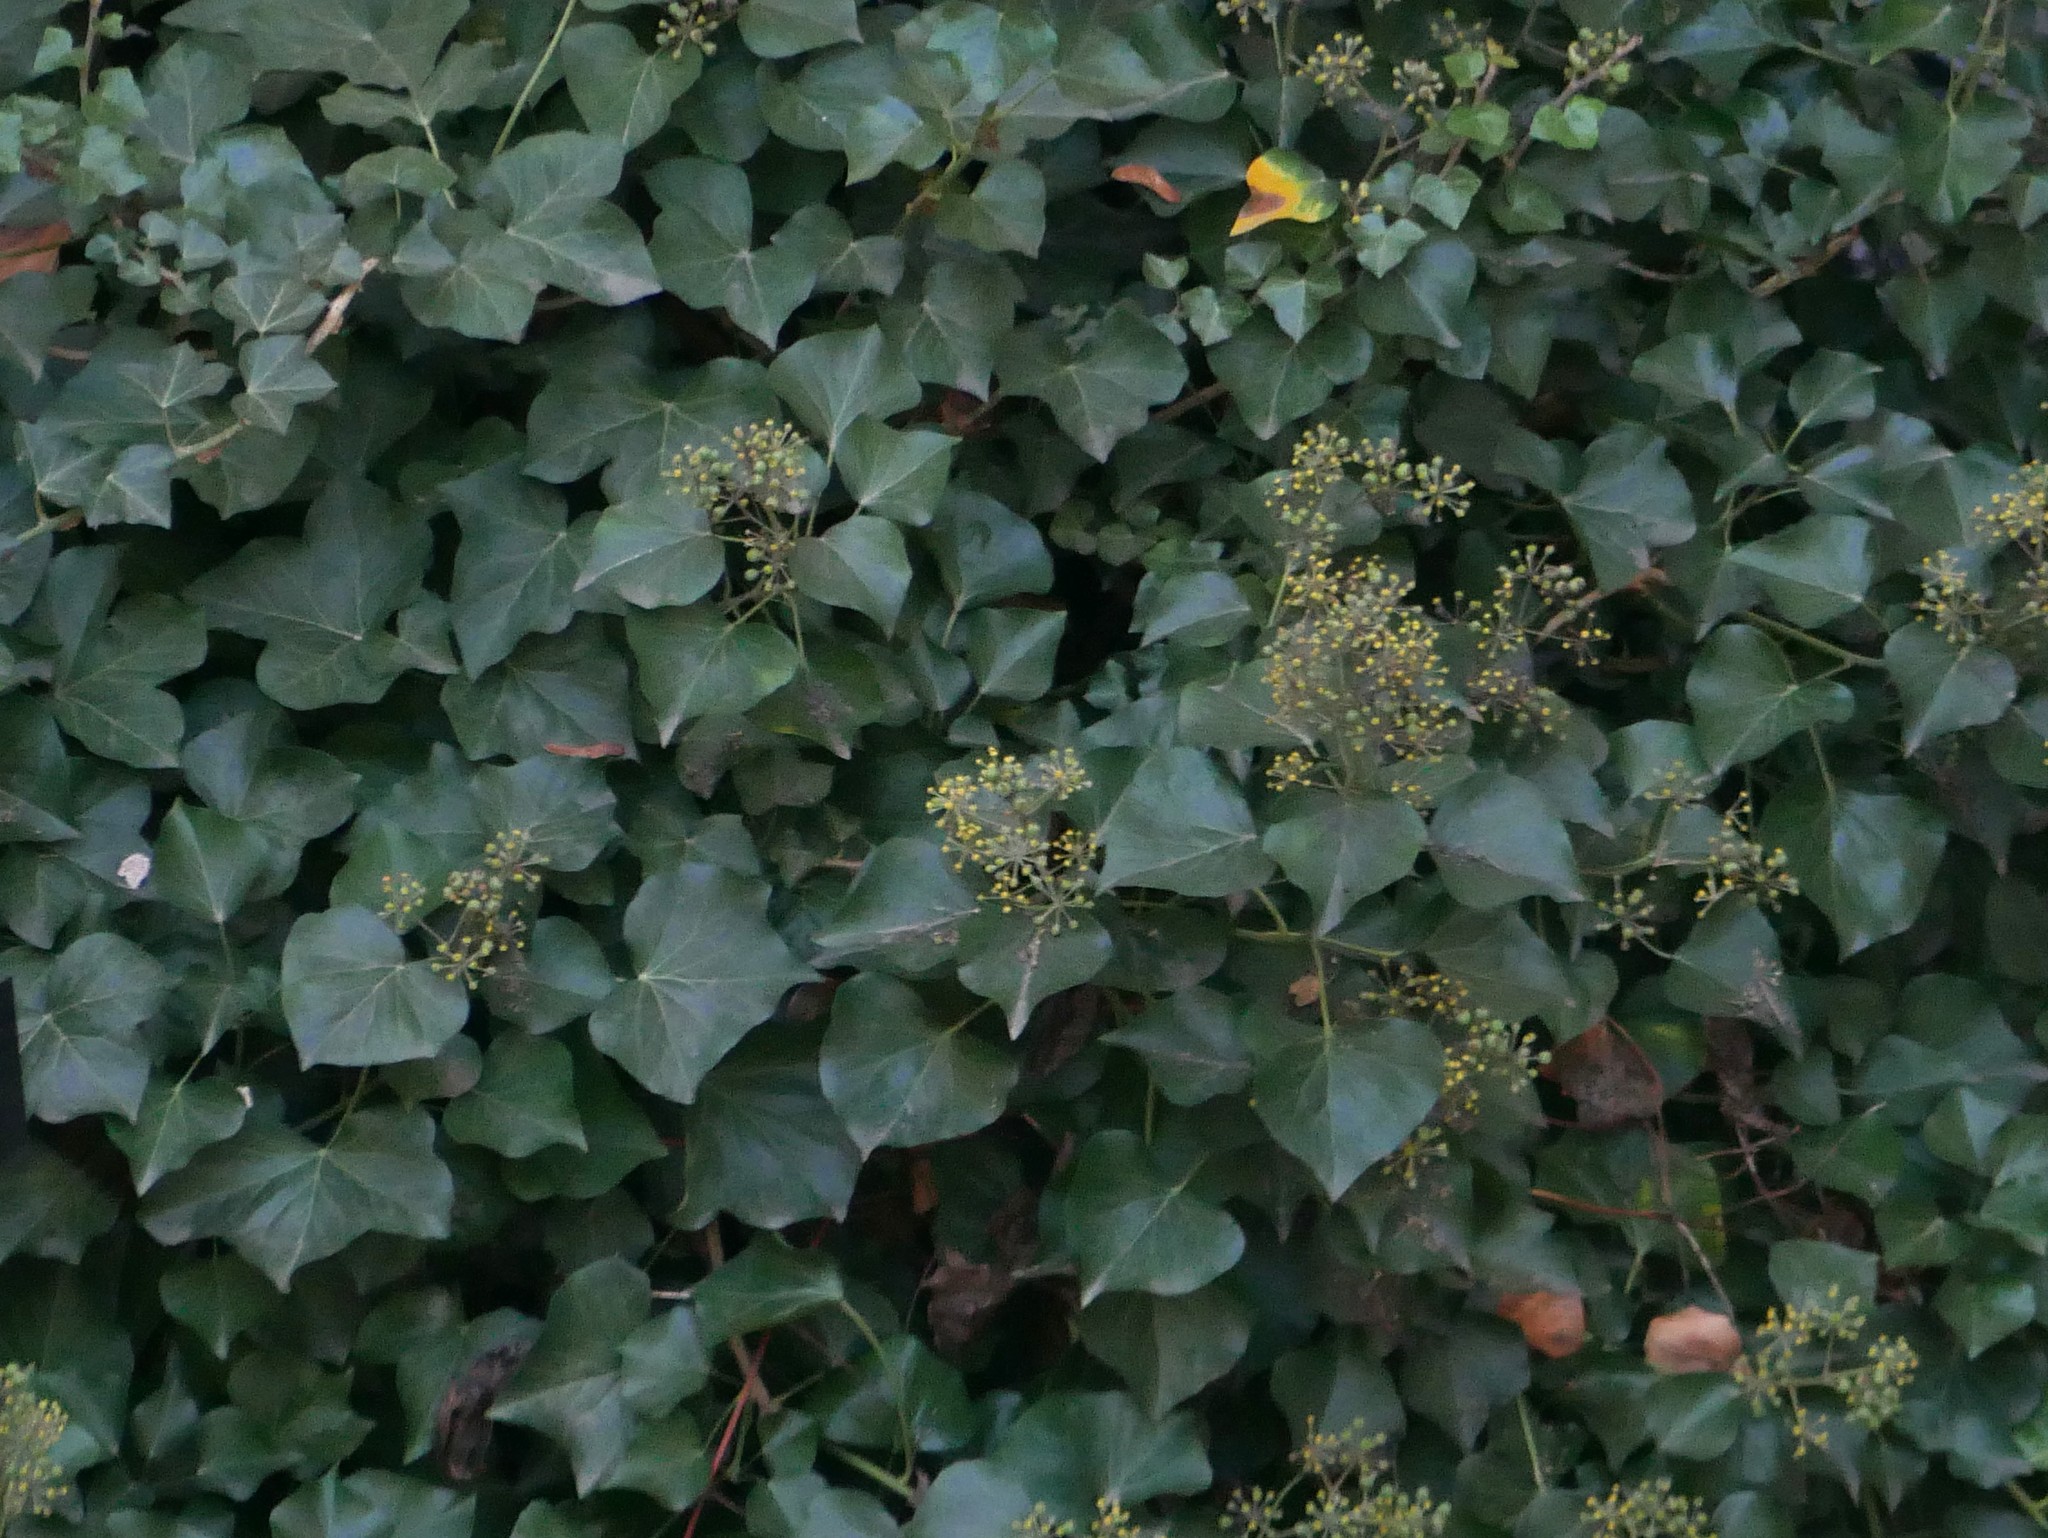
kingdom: Plantae
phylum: Tracheophyta
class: Magnoliopsida
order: Apiales
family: Araliaceae
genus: Hedera
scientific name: Hedera helix
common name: Ivy
